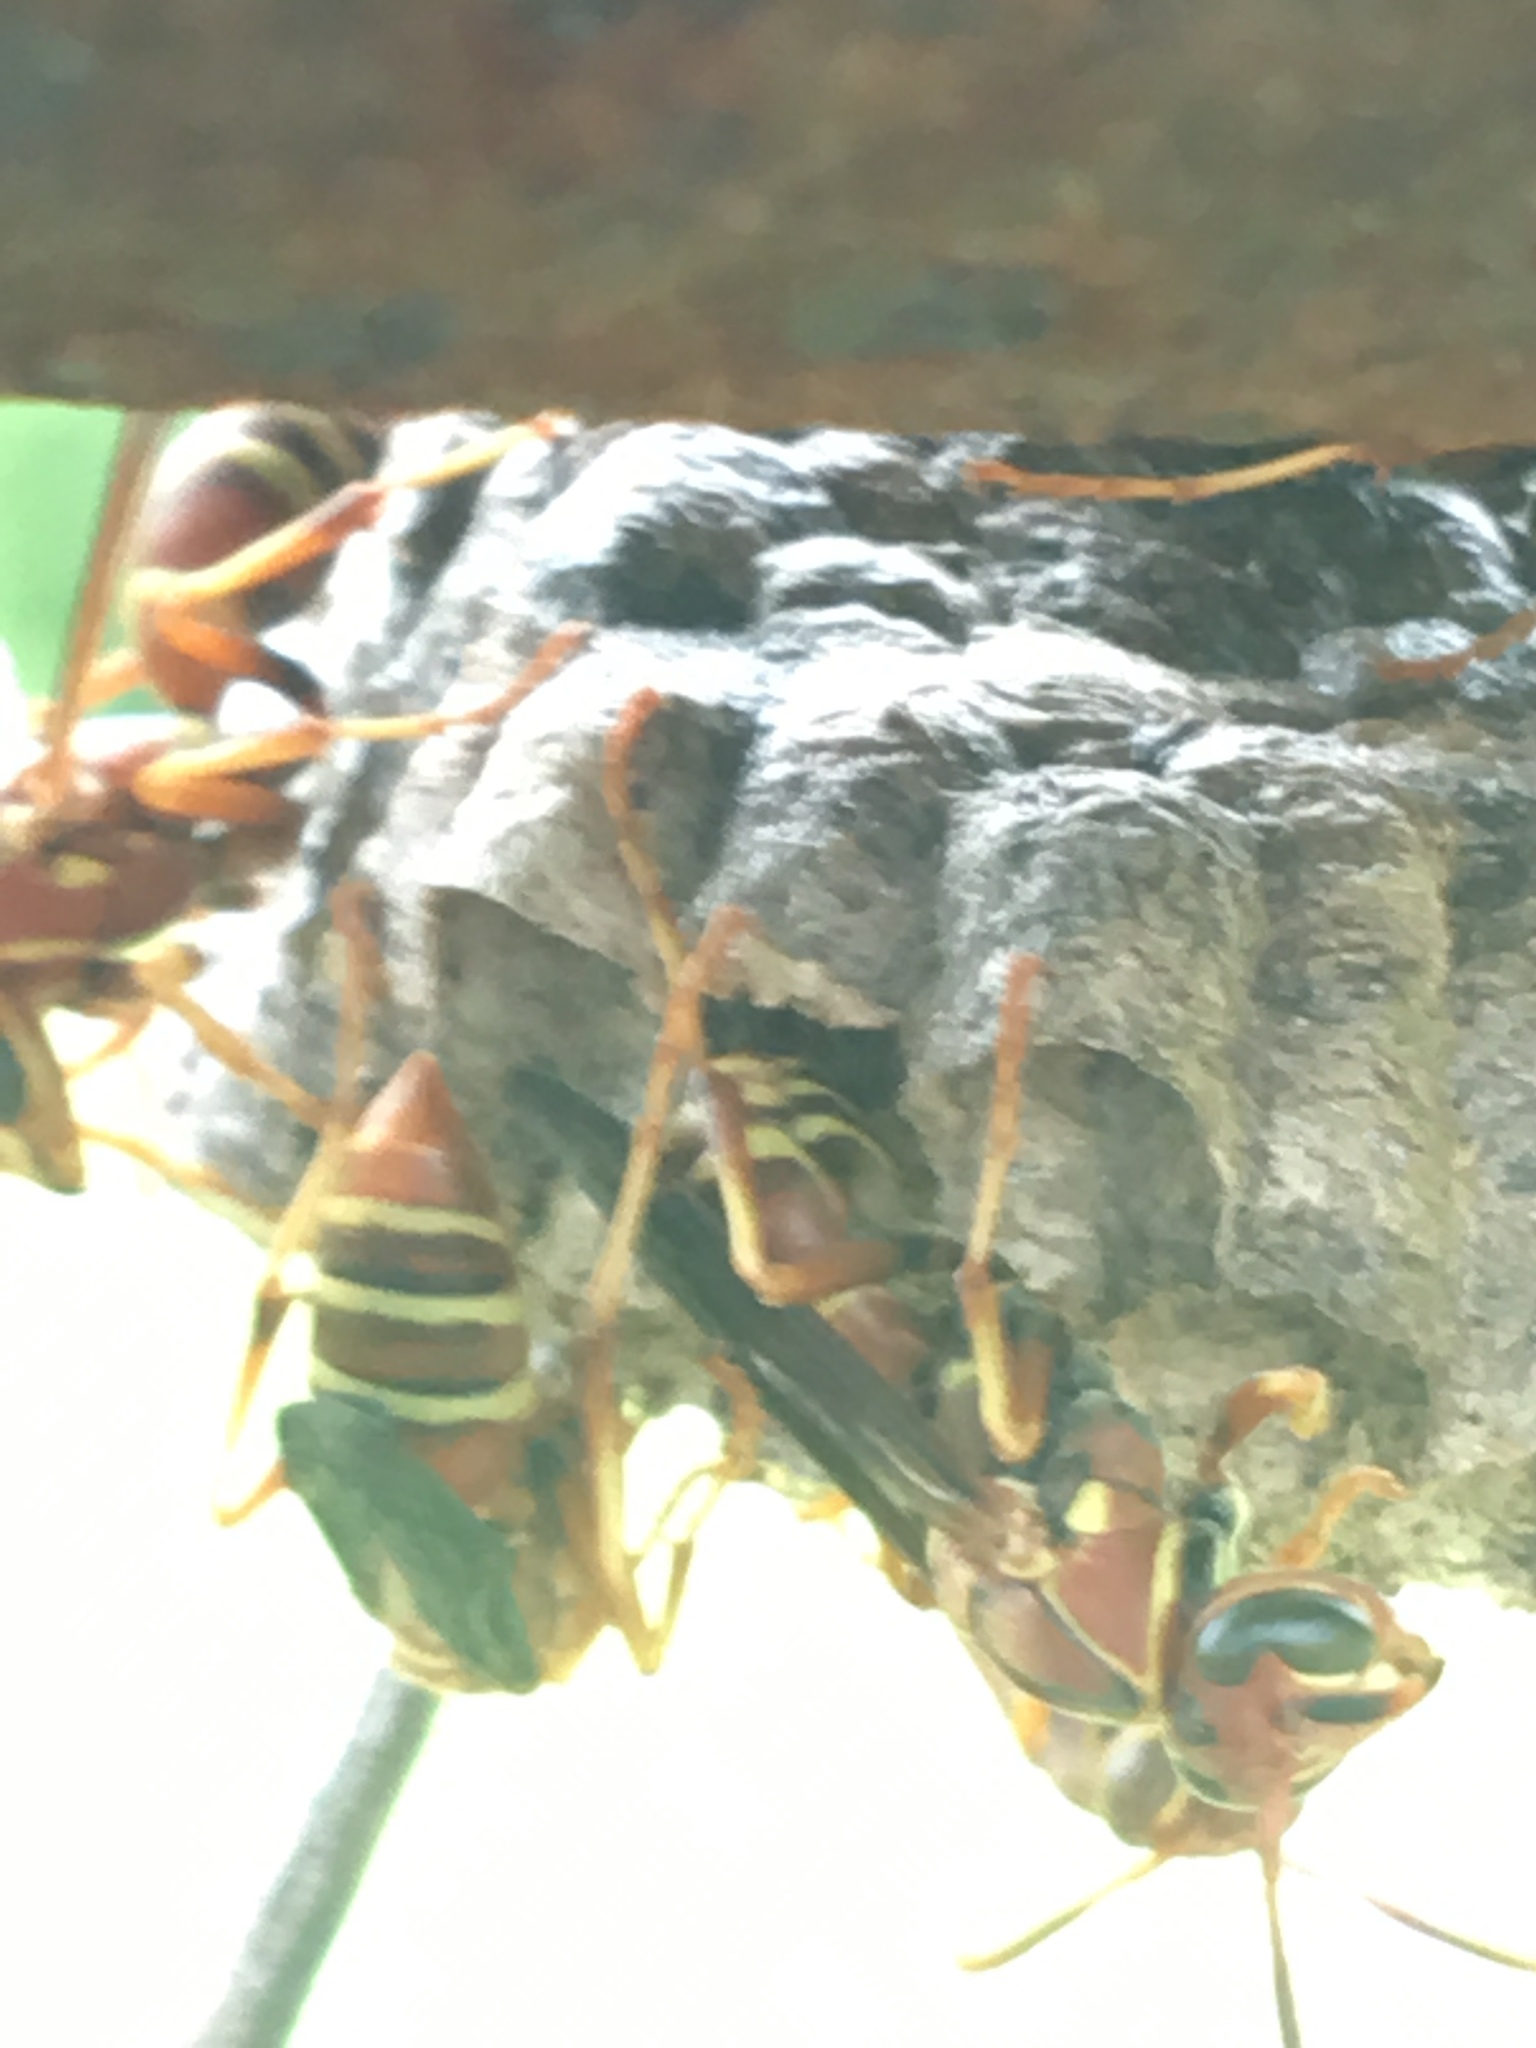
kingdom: Animalia
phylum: Arthropoda
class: Insecta
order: Hymenoptera
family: Eumenidae
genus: Polistes
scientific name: Polistes dorsalis
